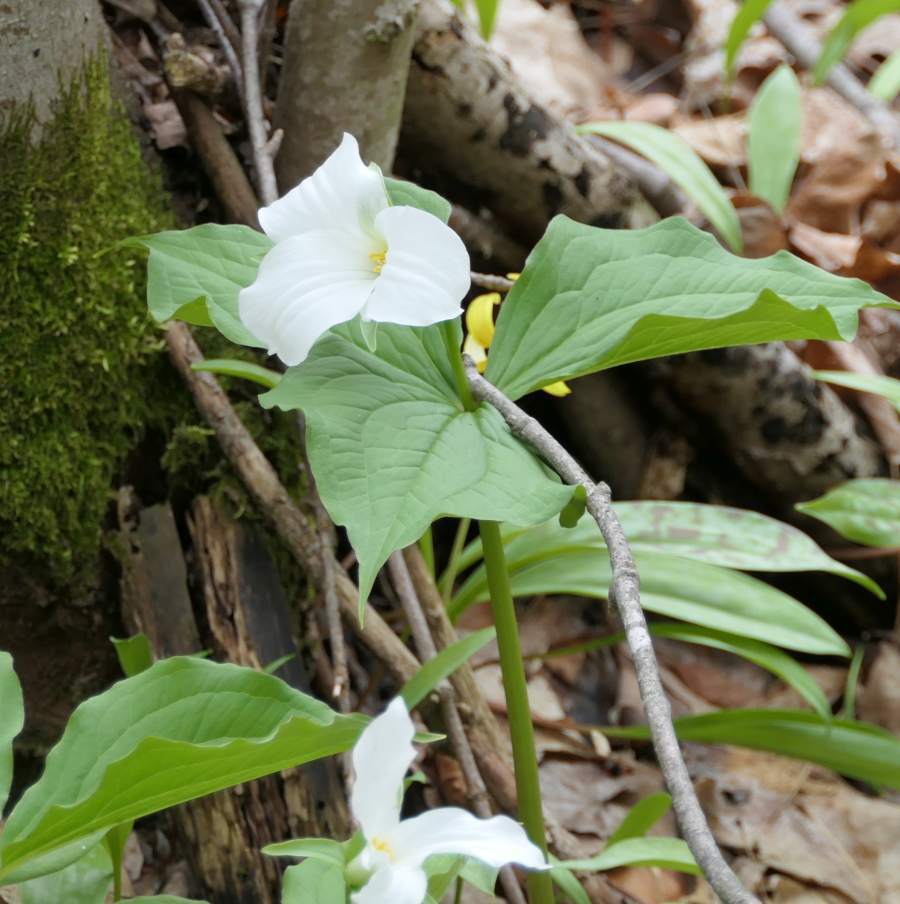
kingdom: Plantae
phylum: Tracheophyta
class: Liliopsida
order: Liliales
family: Melanthiaceae
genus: Trillium
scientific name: Trillium grandiflorum
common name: Great white trillium
